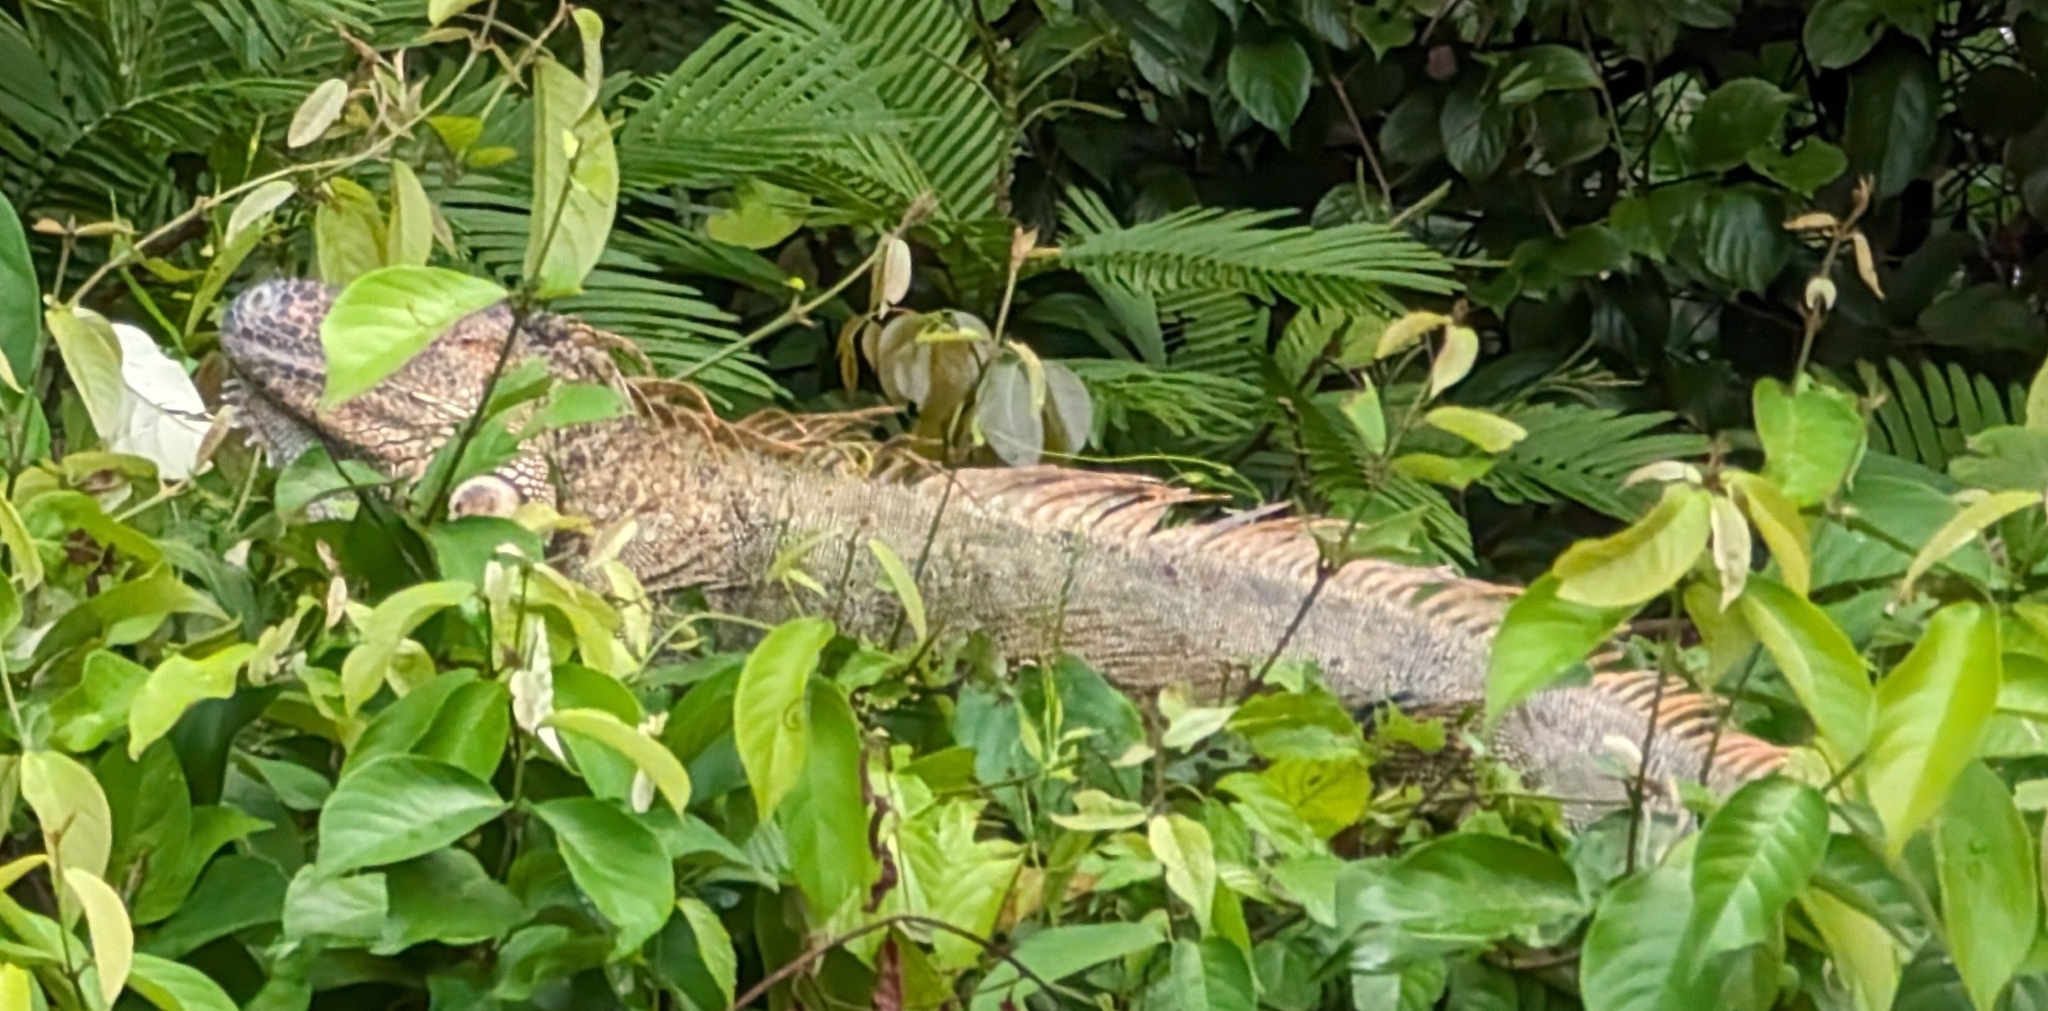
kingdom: Animalia
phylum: Chordata
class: Squamata
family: Iguanidae
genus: Iguana
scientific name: Iguana iguana
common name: Green iguana
